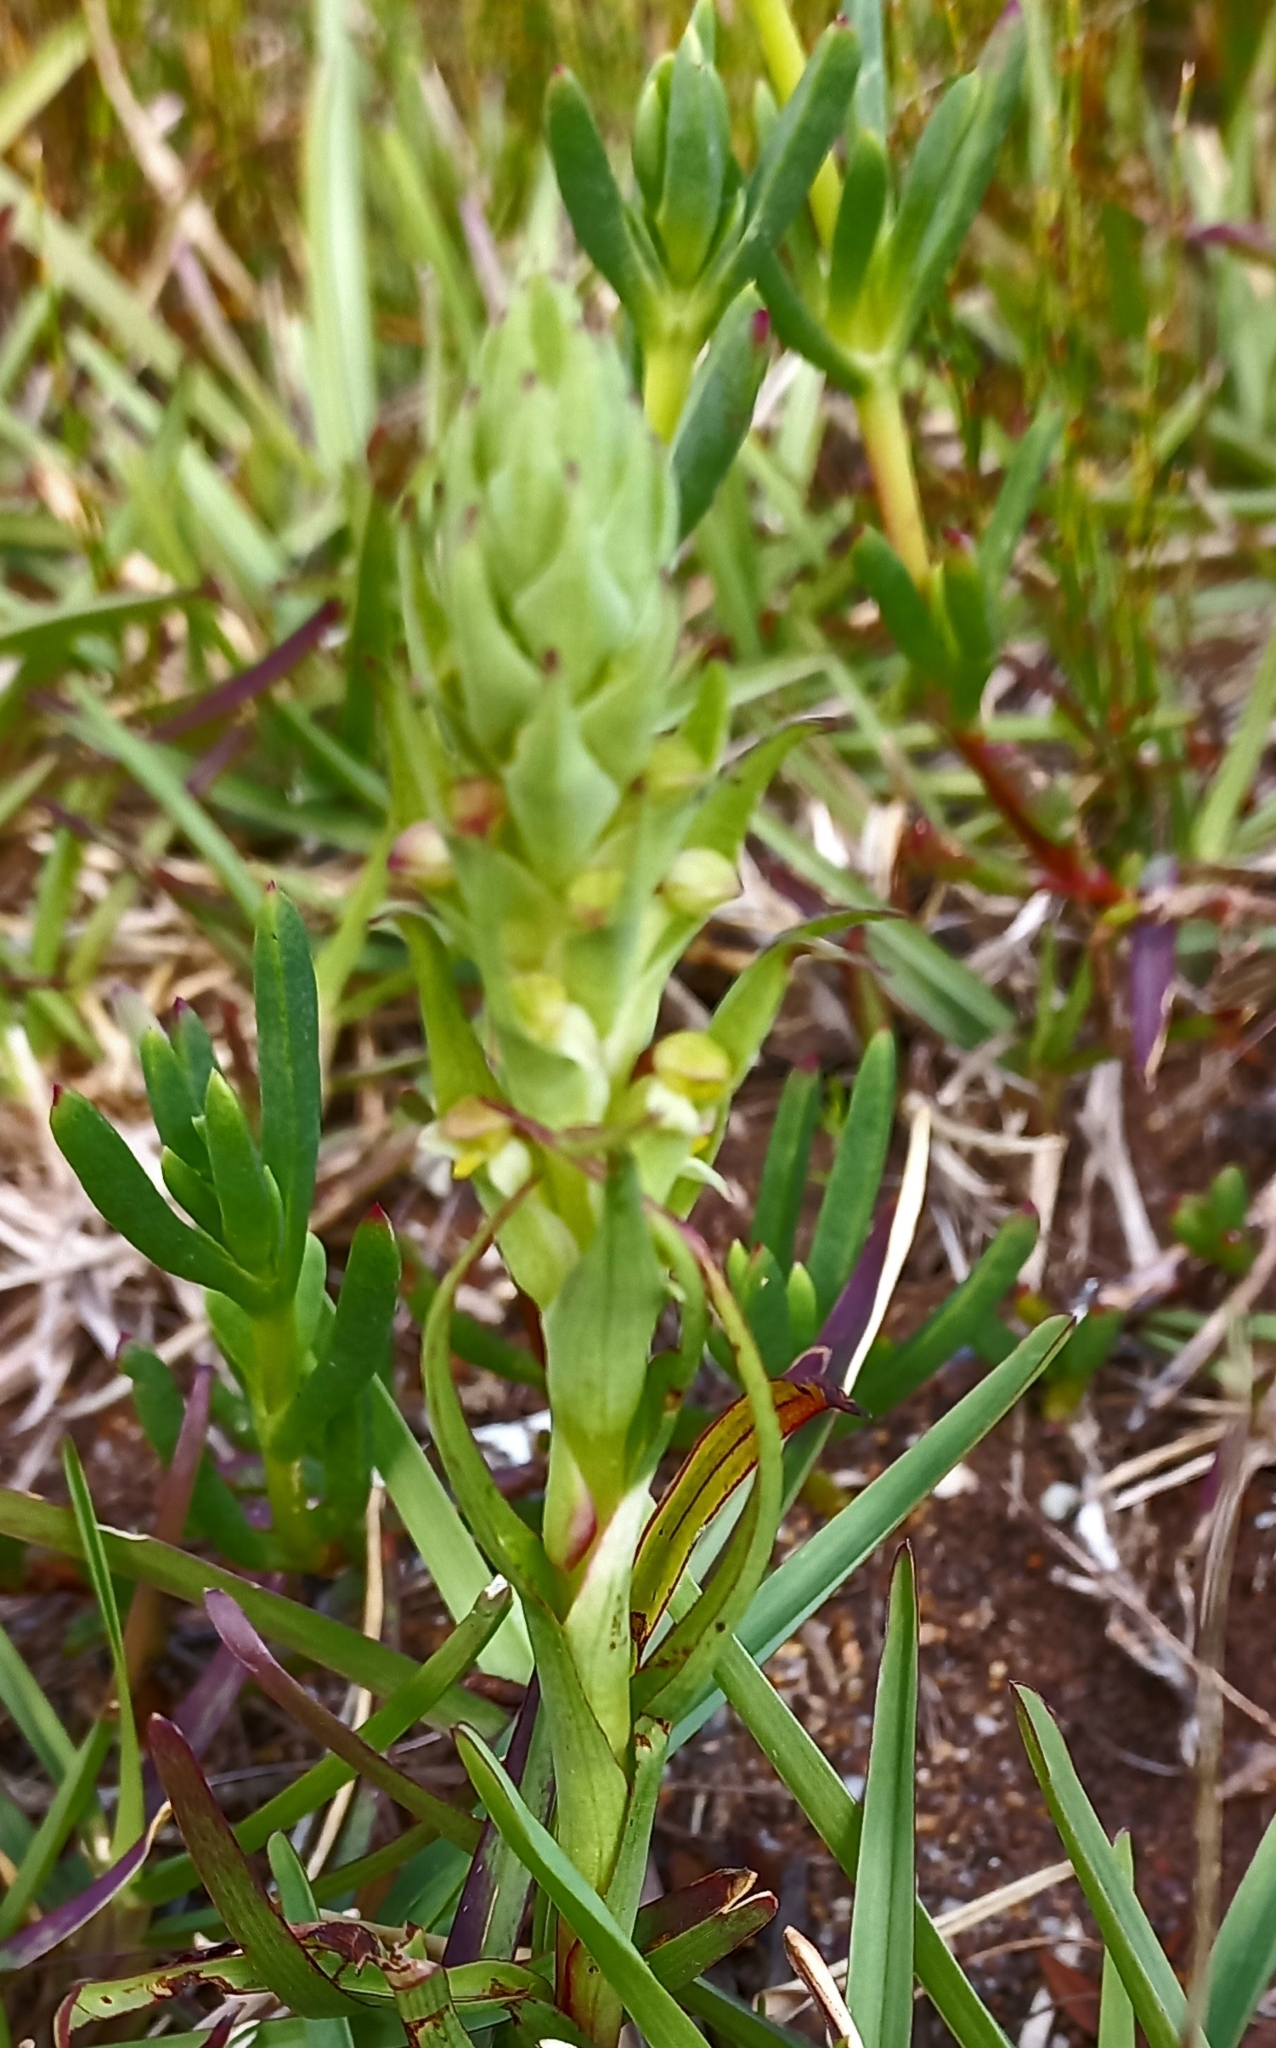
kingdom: Plantae
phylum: Tracheophyta
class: Liliopsida
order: Asparagales
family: Orchidaceae
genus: Disa
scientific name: Disa bracteata
